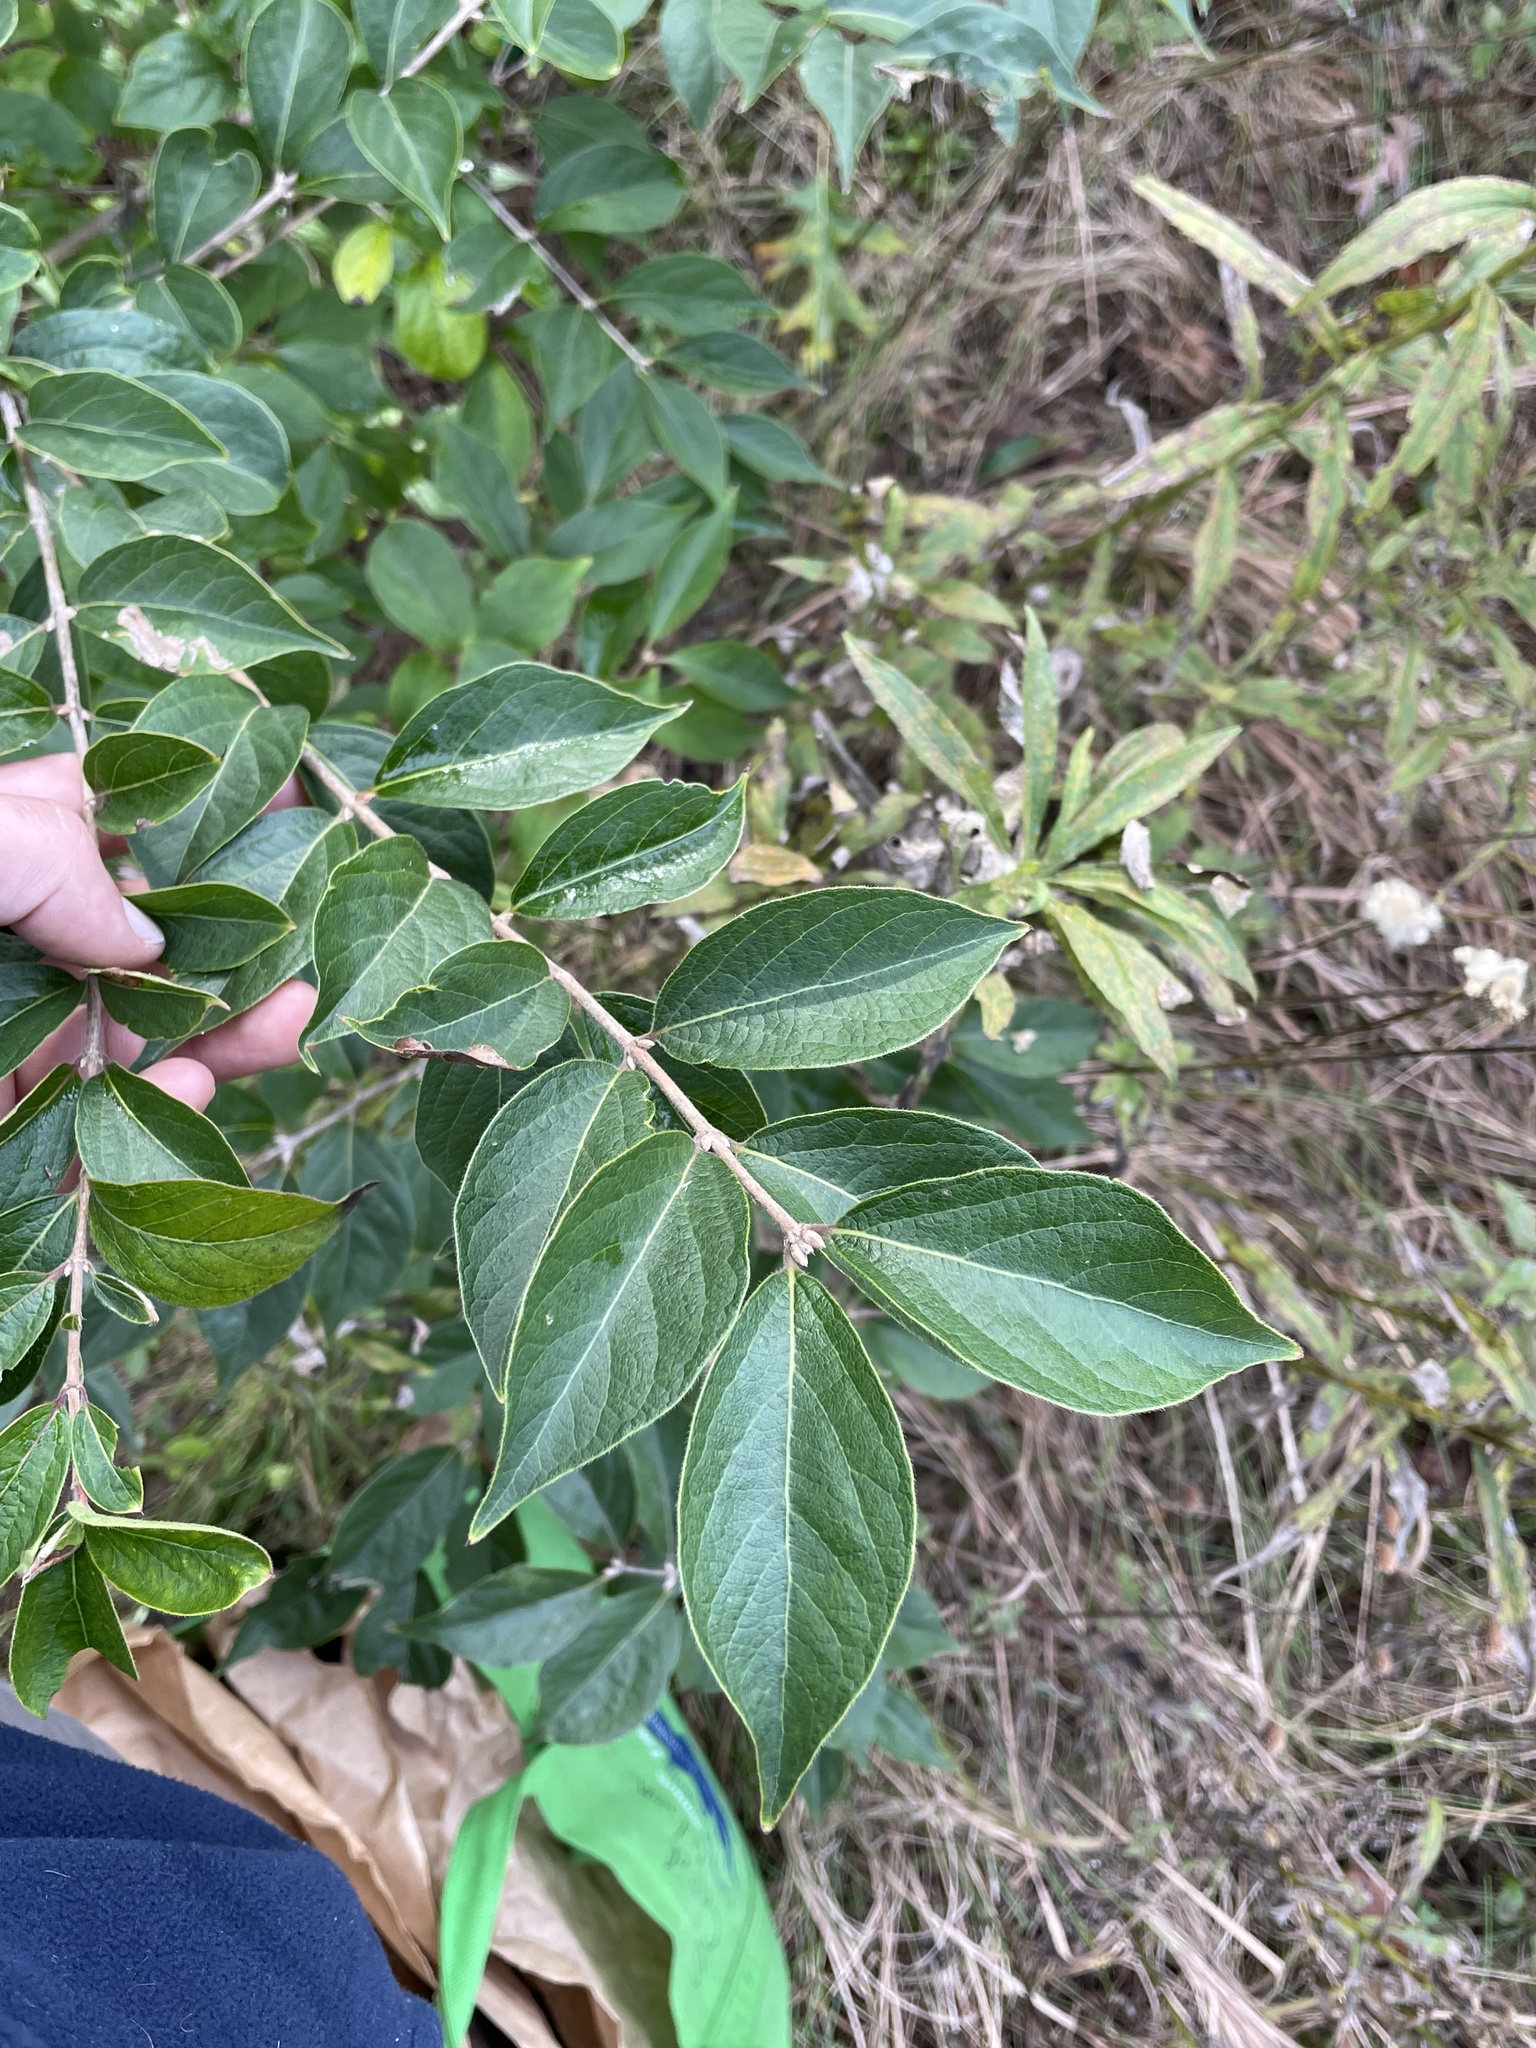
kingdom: Plantae
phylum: Tracheophyta
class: Magnoliopsida
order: Dipsacales
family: Caprifoliaceae
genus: Lonicera
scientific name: Lonicera maackii
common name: Amur honeysuckle
